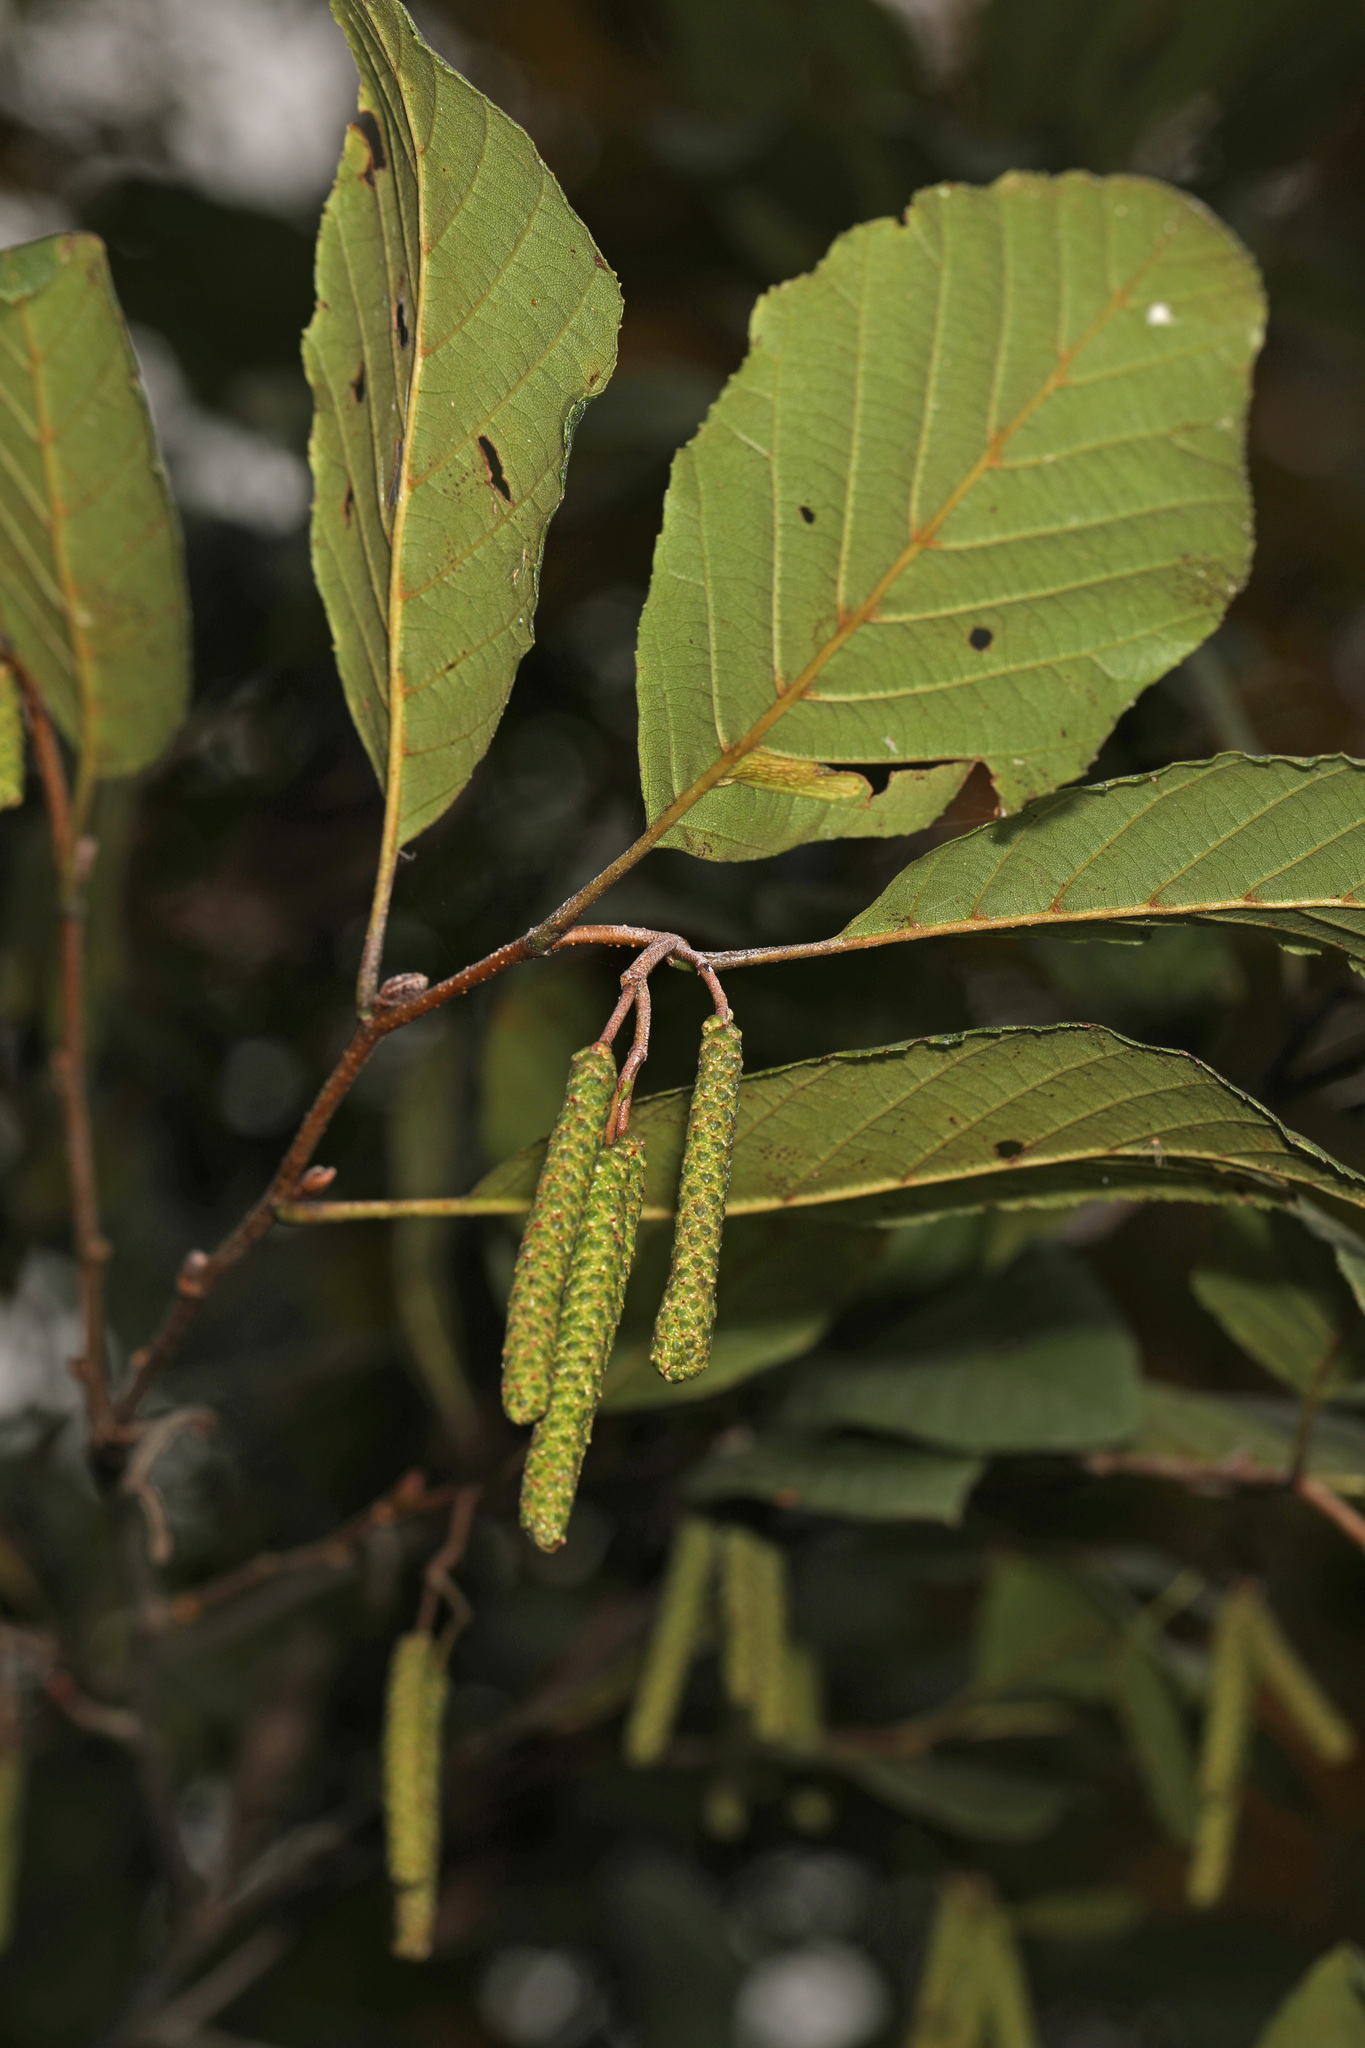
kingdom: Plantae
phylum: Tracheophyta
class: Magnoliopsida
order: Fagales
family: Betulaceae
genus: Alnus
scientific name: Alnus serrulata
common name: Hazel alder
